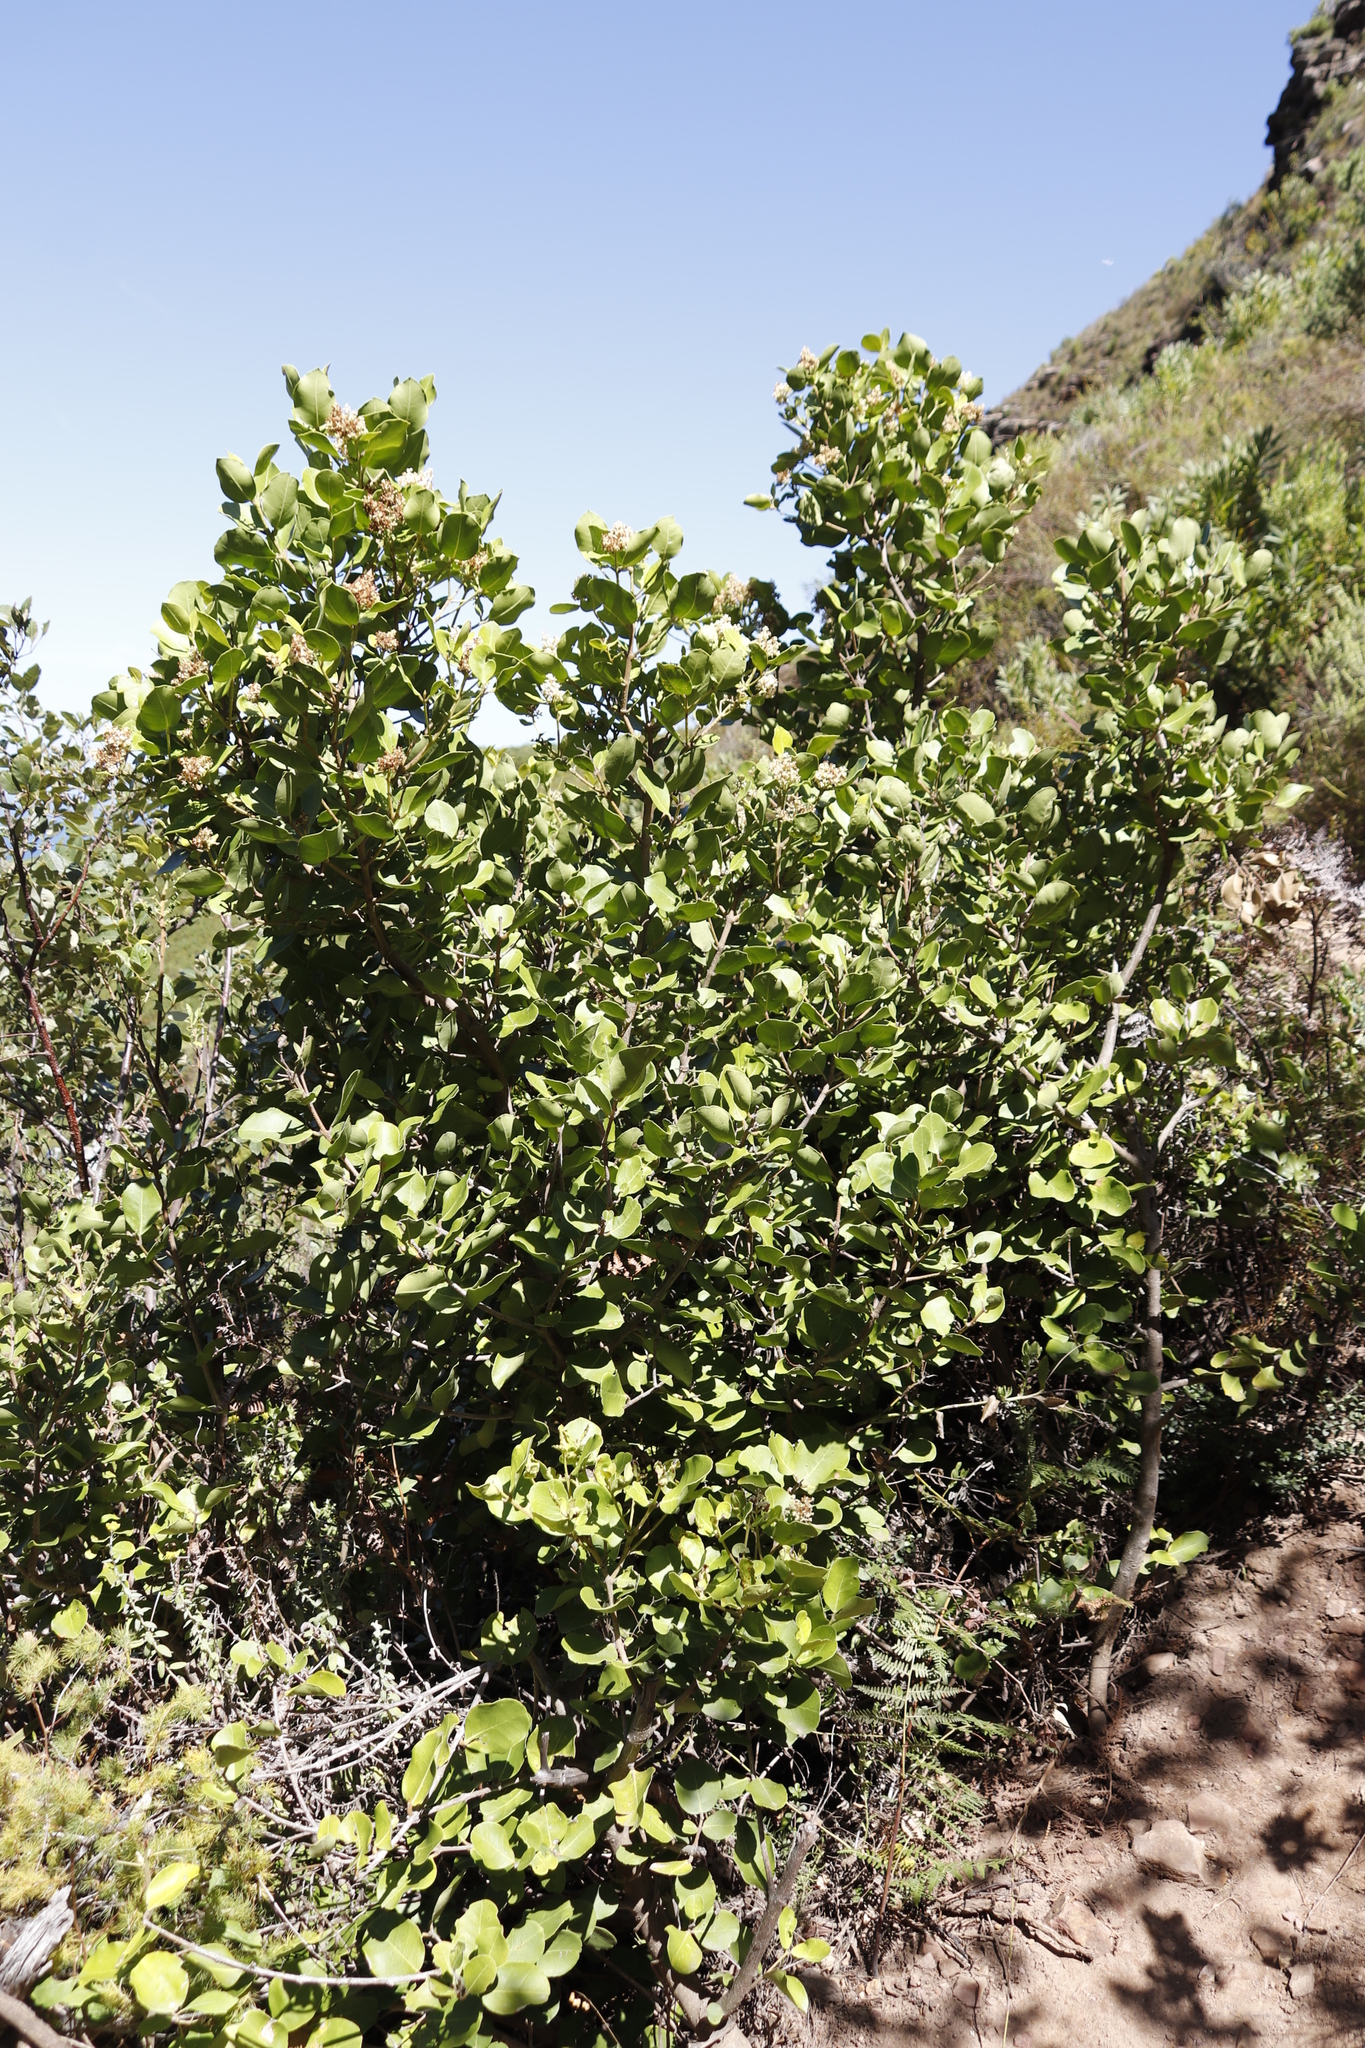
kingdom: Plantae
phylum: Tracheophyta
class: Magnoliopsida
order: Lamiales
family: Oleaceae
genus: Olea
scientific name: Olea capensis
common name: Black ironwood
